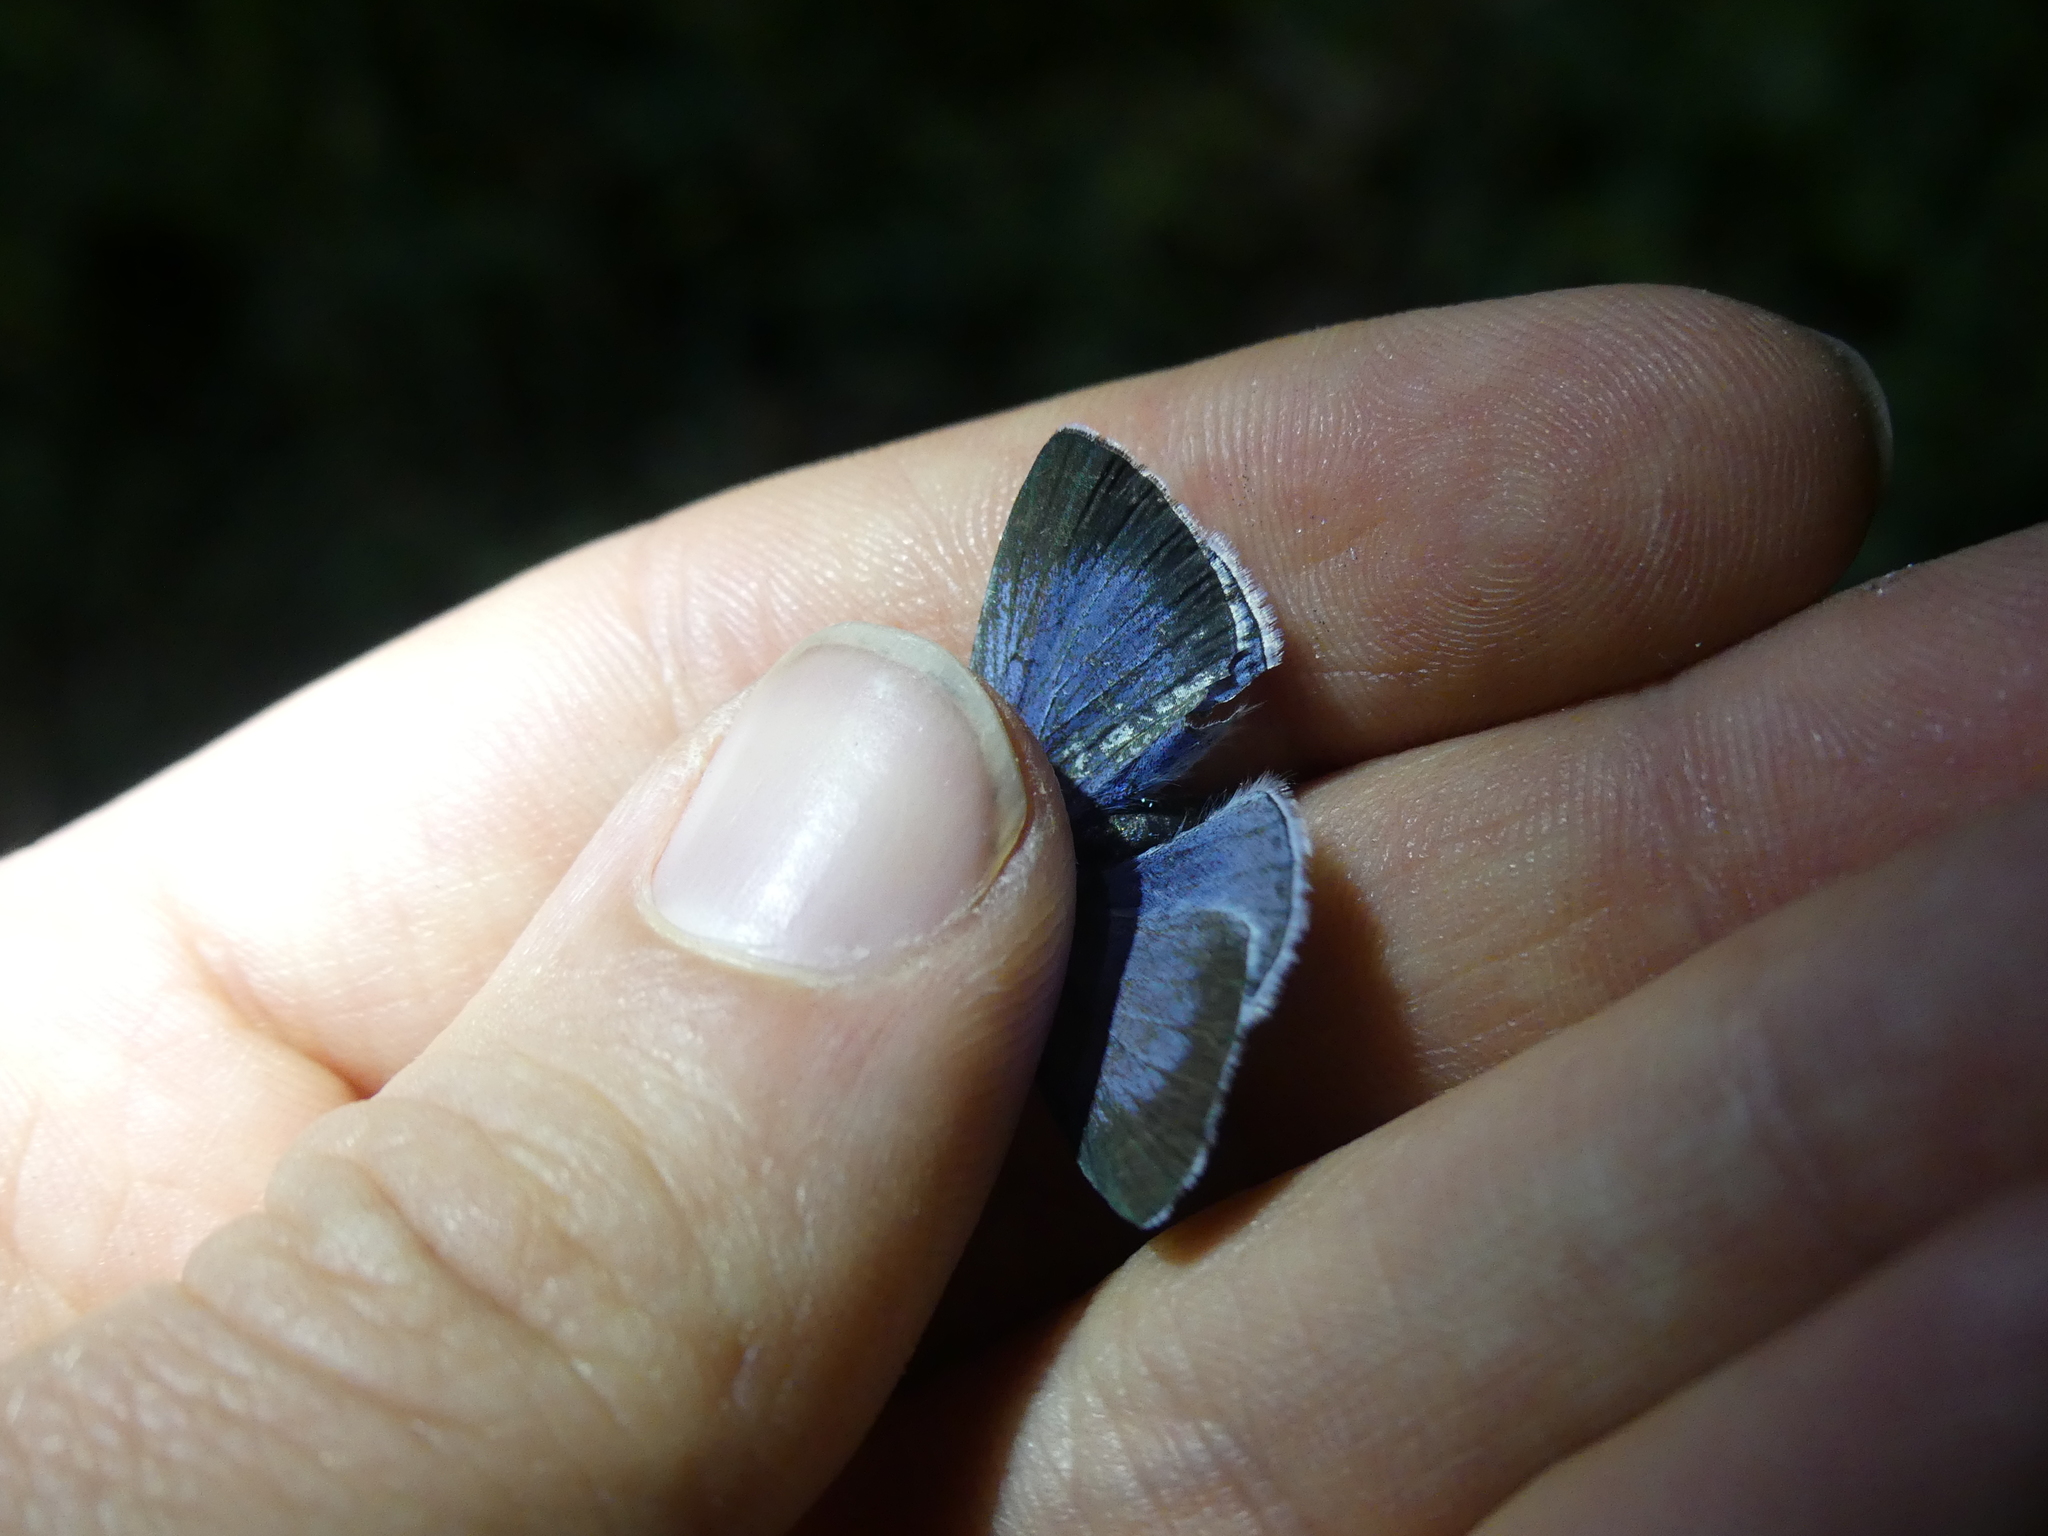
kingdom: Animalia
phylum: Arthropoda
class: Insecta
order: Lepidoptera
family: Lycaenidae
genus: Celastrina
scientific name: Celastrina argiolus
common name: Holly blue
